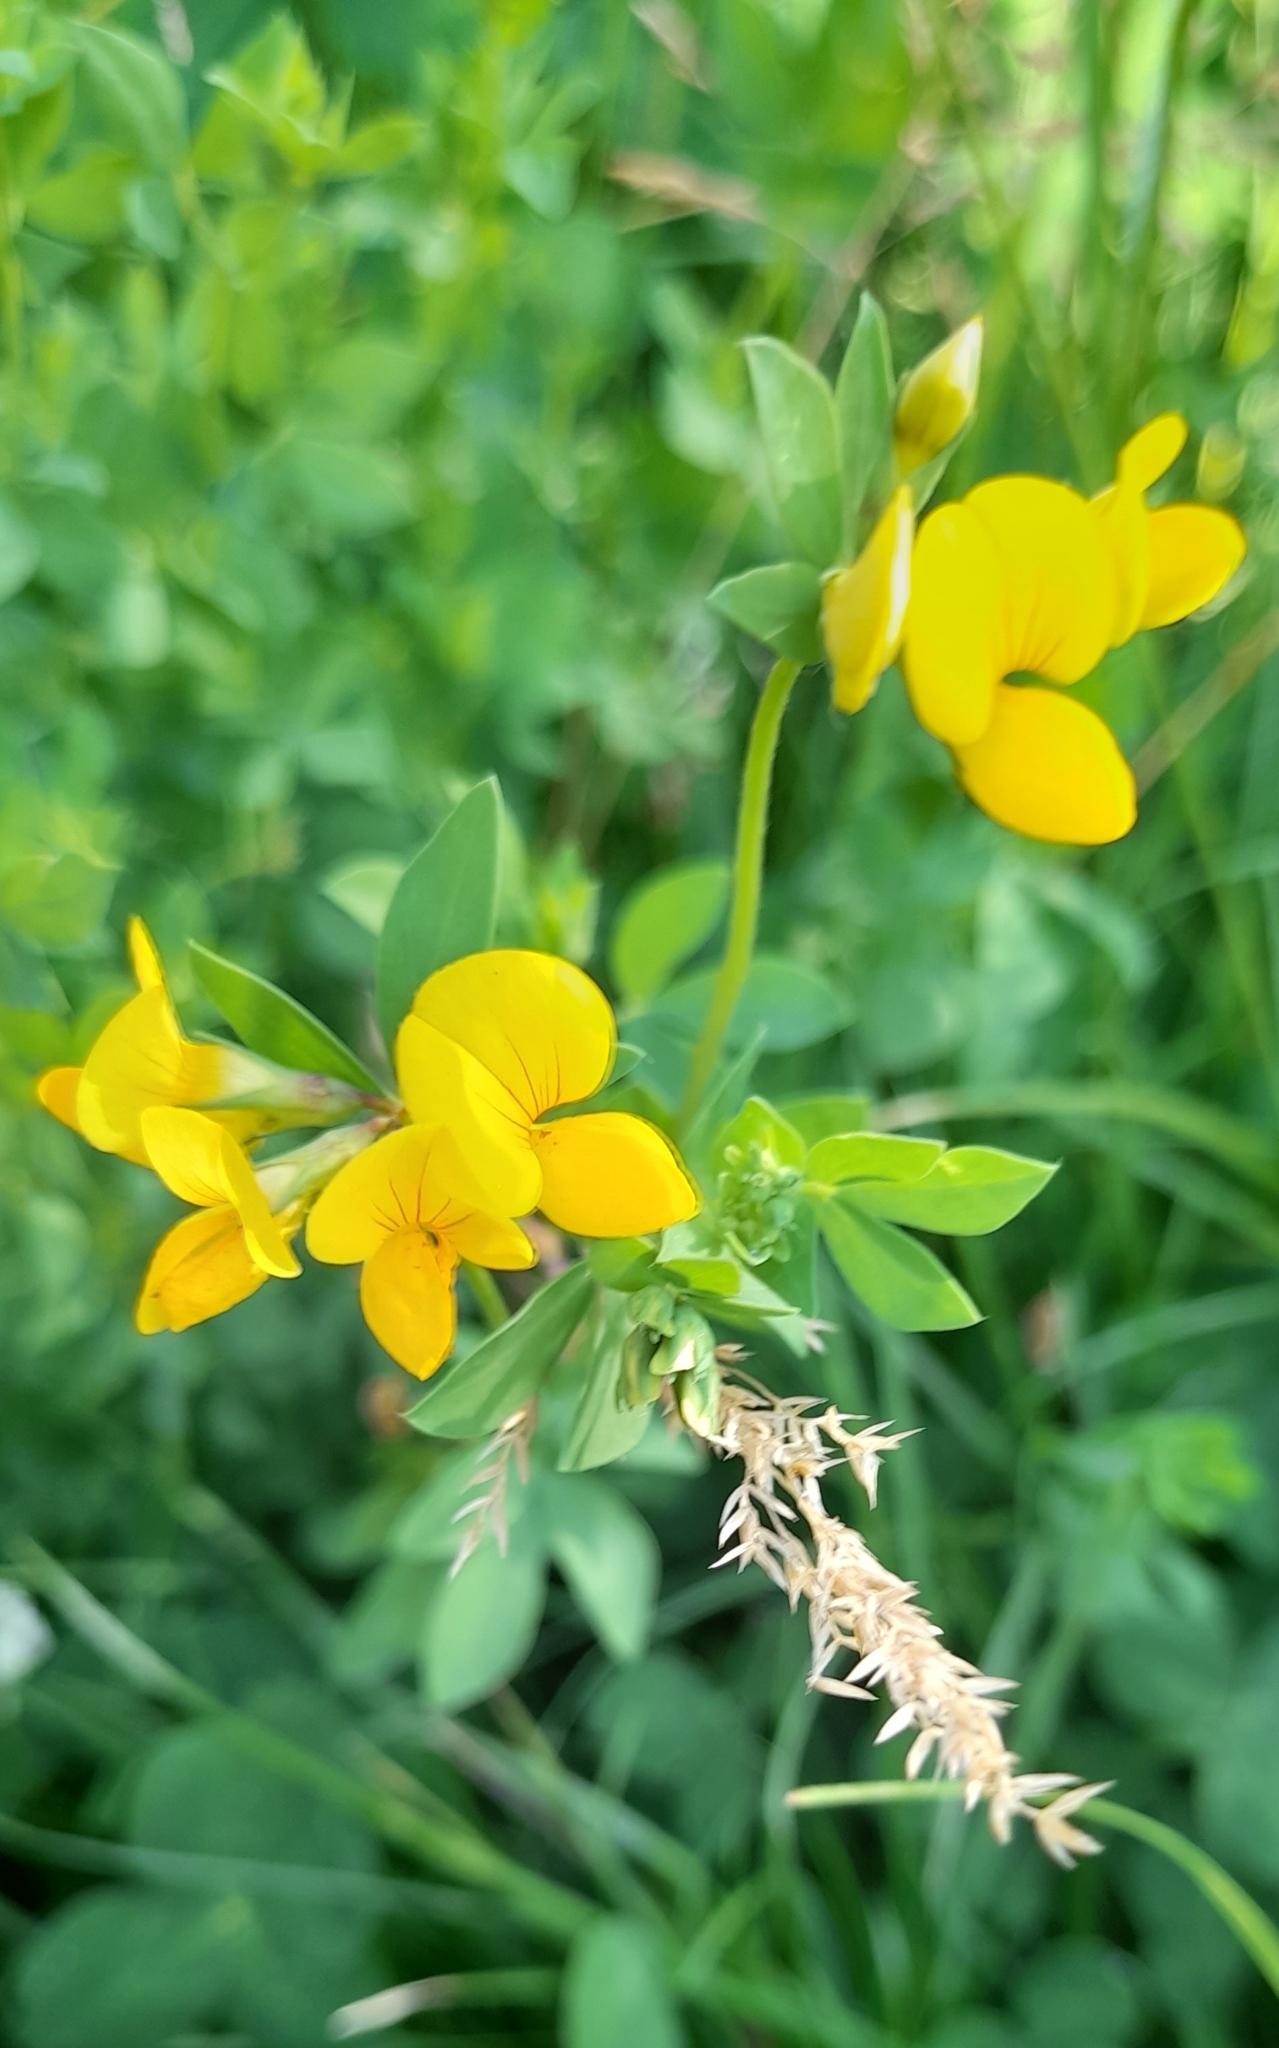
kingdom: Plantae
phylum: Tracheophyta
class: Magnoliopsida
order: Fabales
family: Fabaceae
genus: Lotus
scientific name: Lotus corniculatus
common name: Common bird's-foot-trefoil
